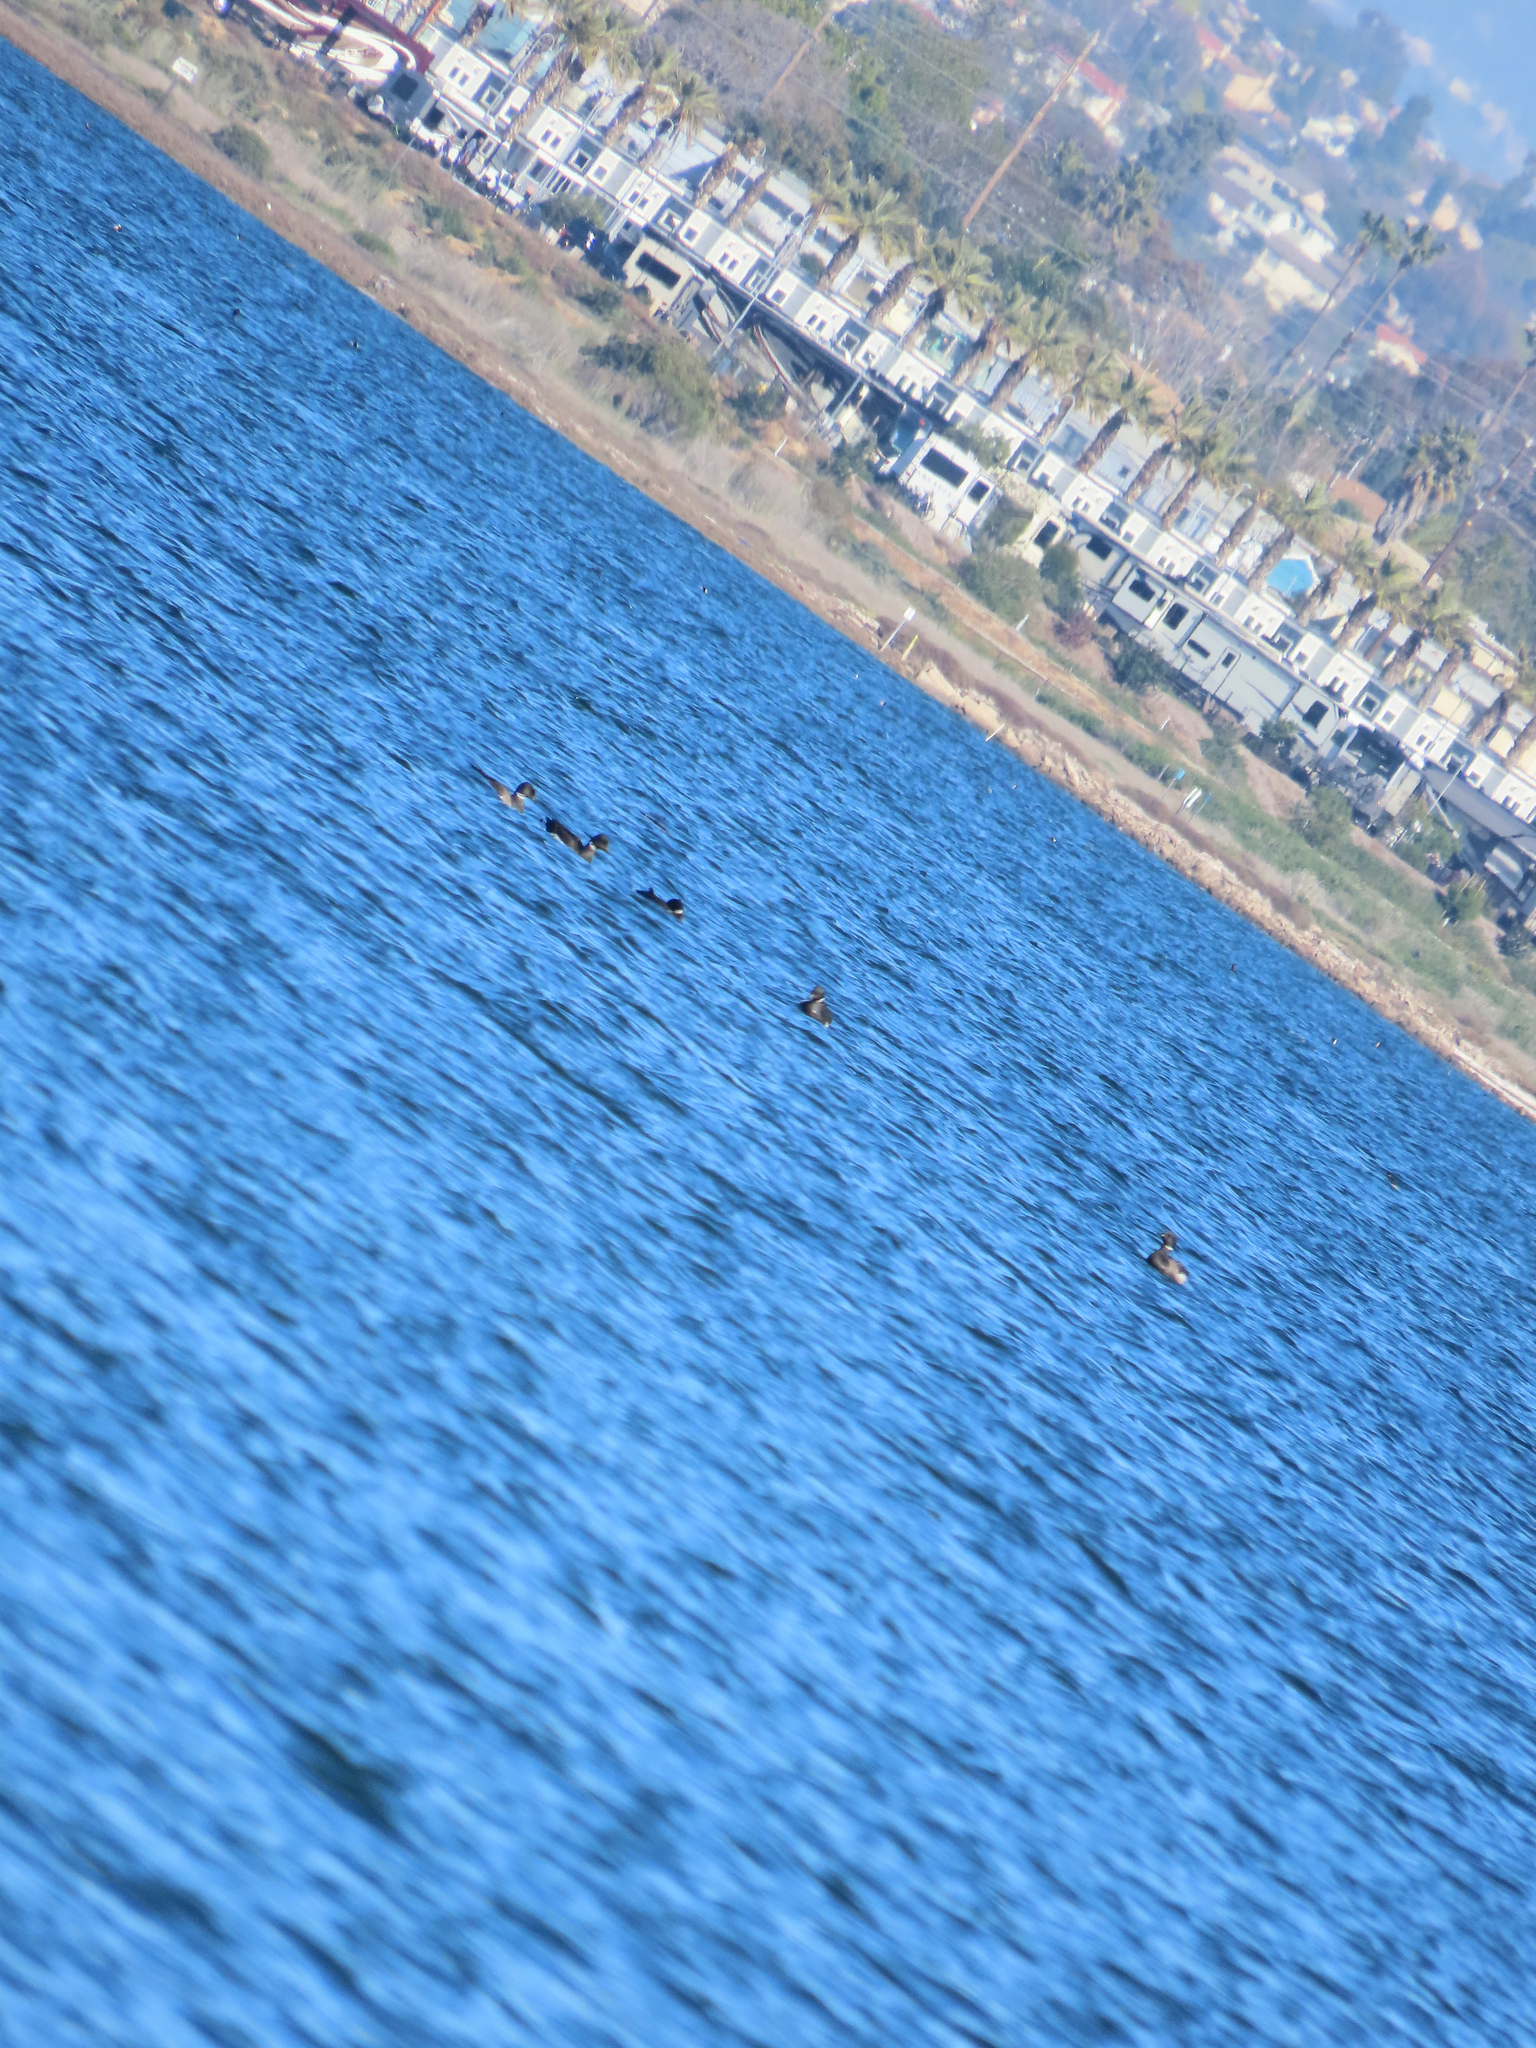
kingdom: Animalia
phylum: Chordata
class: Aves
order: Anseriformes
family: Anatidae
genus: Branta
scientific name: Branta bernicla
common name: Brant goose
